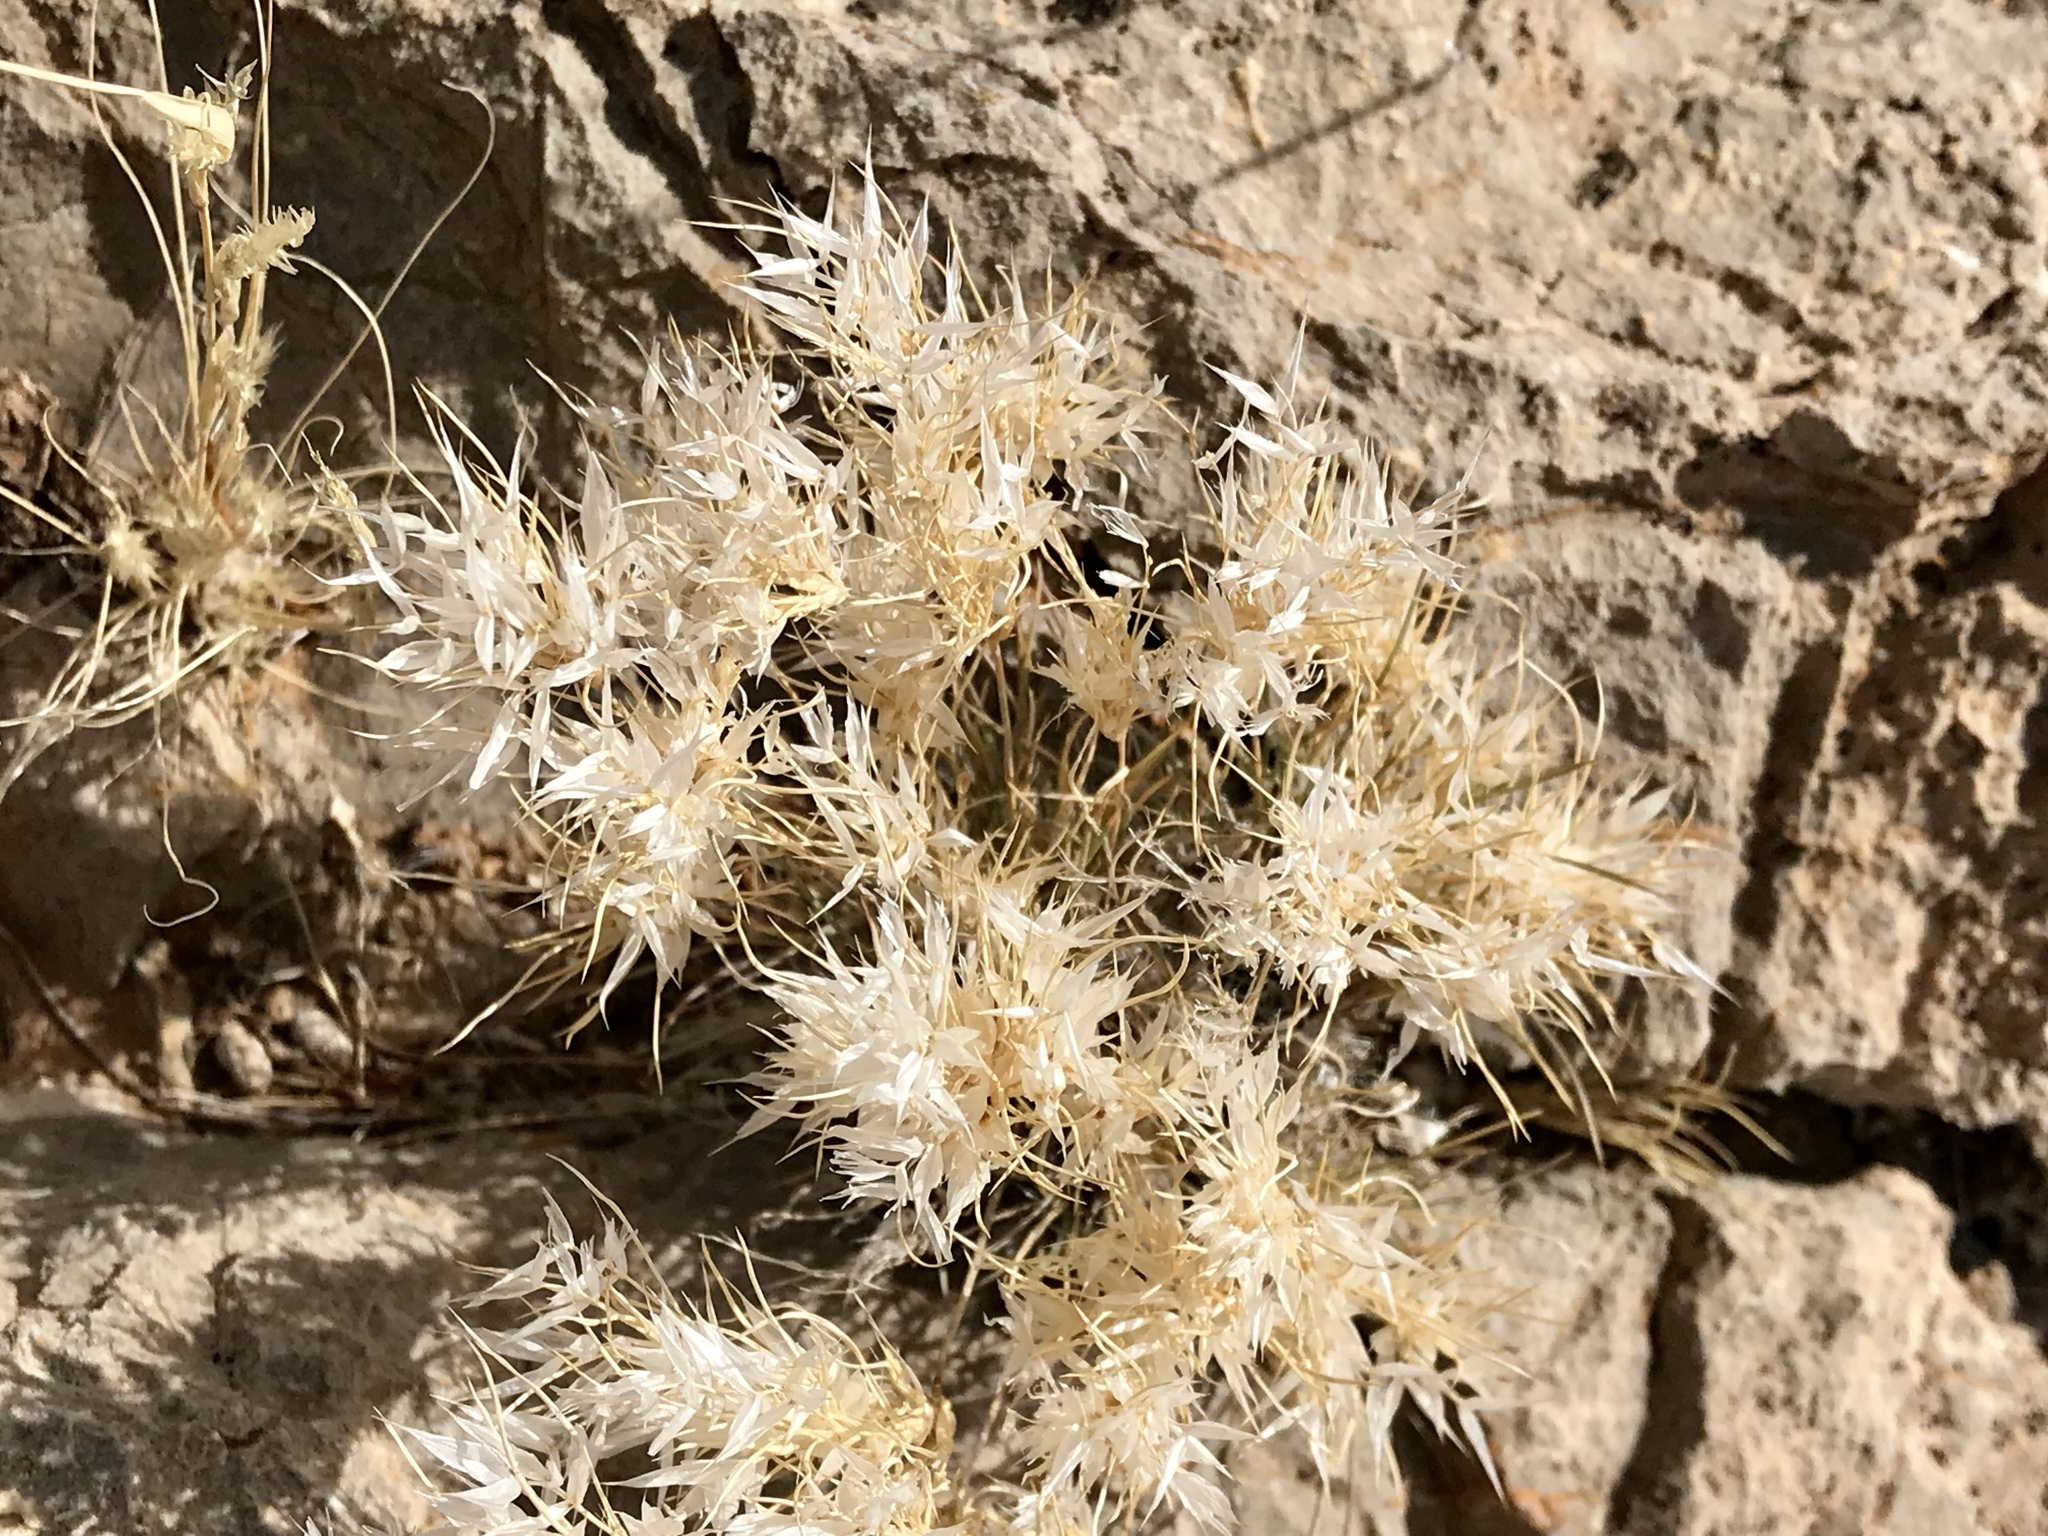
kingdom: Plantae
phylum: Tracheophyta
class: Liliopsida
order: Poales
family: Poaceae
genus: Dasyochloa
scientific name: Dasyochloa pulchella
